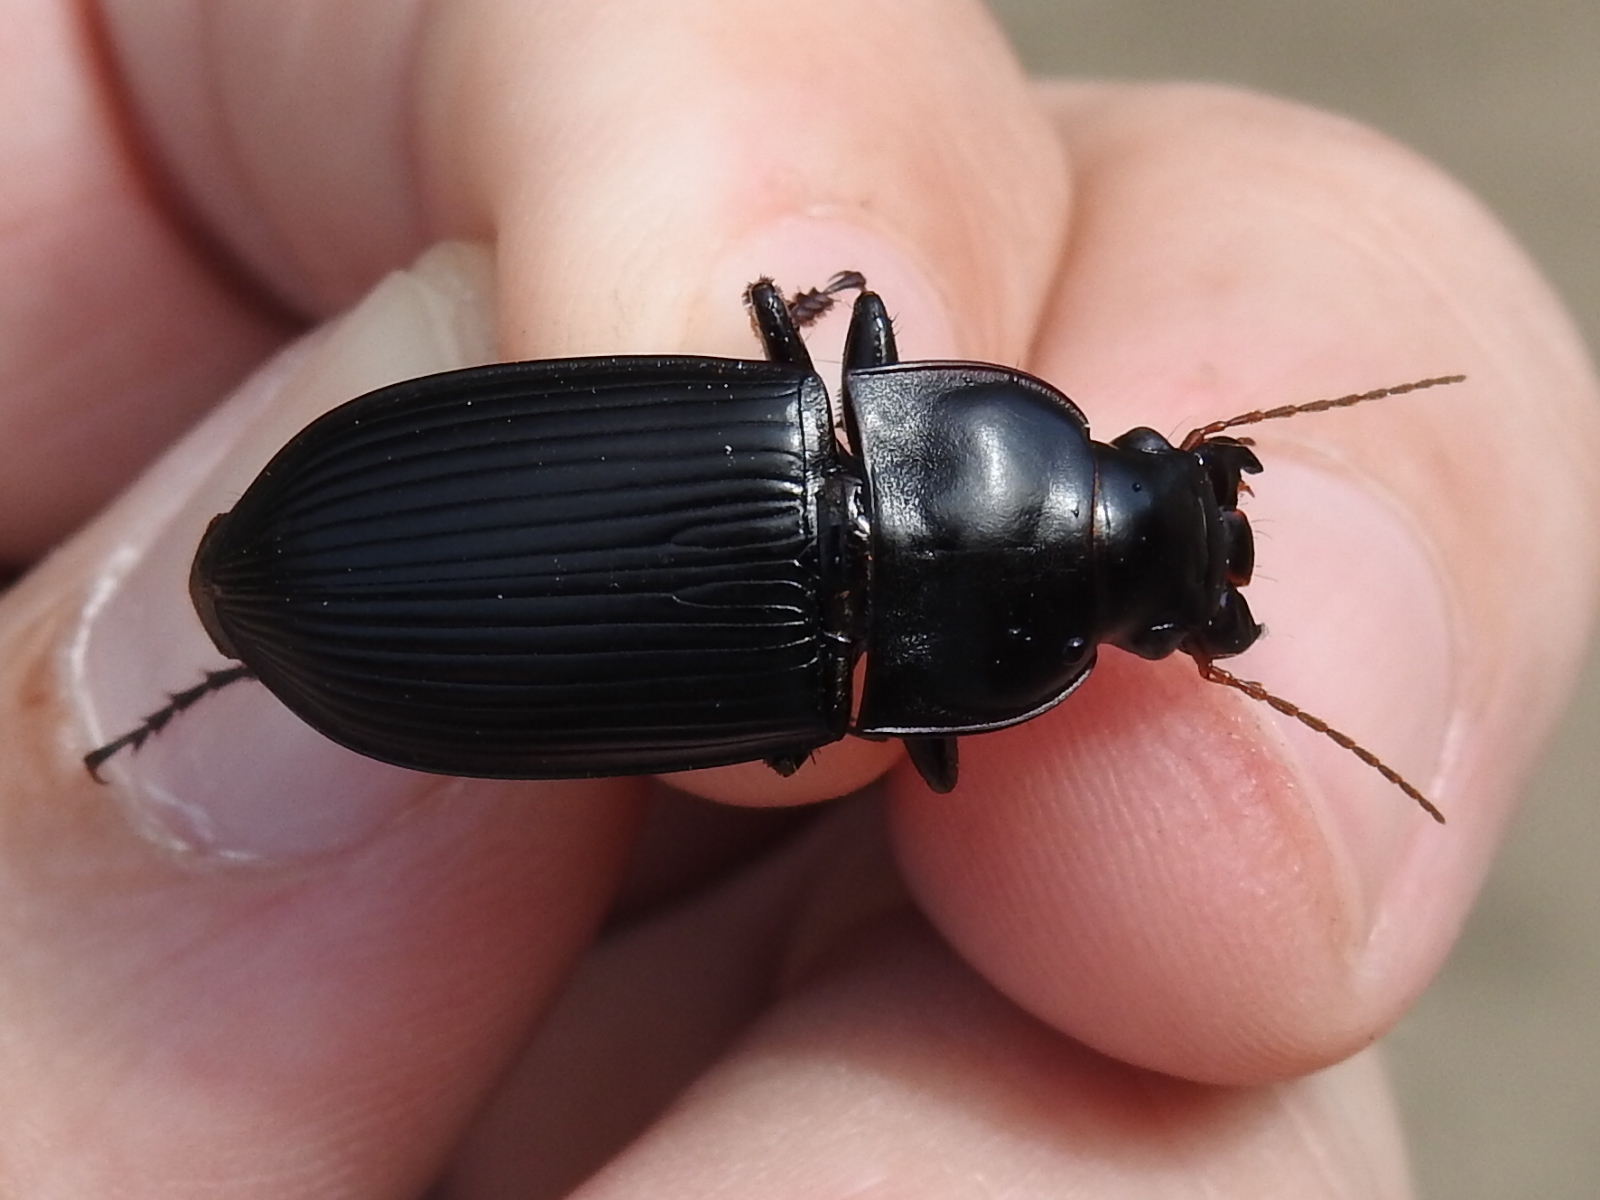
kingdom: Animalia
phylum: Arthropoda
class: Insecta
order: Coleoptera
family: Carabidae
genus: Harpalus
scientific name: Harpalus caliginosus
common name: Murky ground beetle
